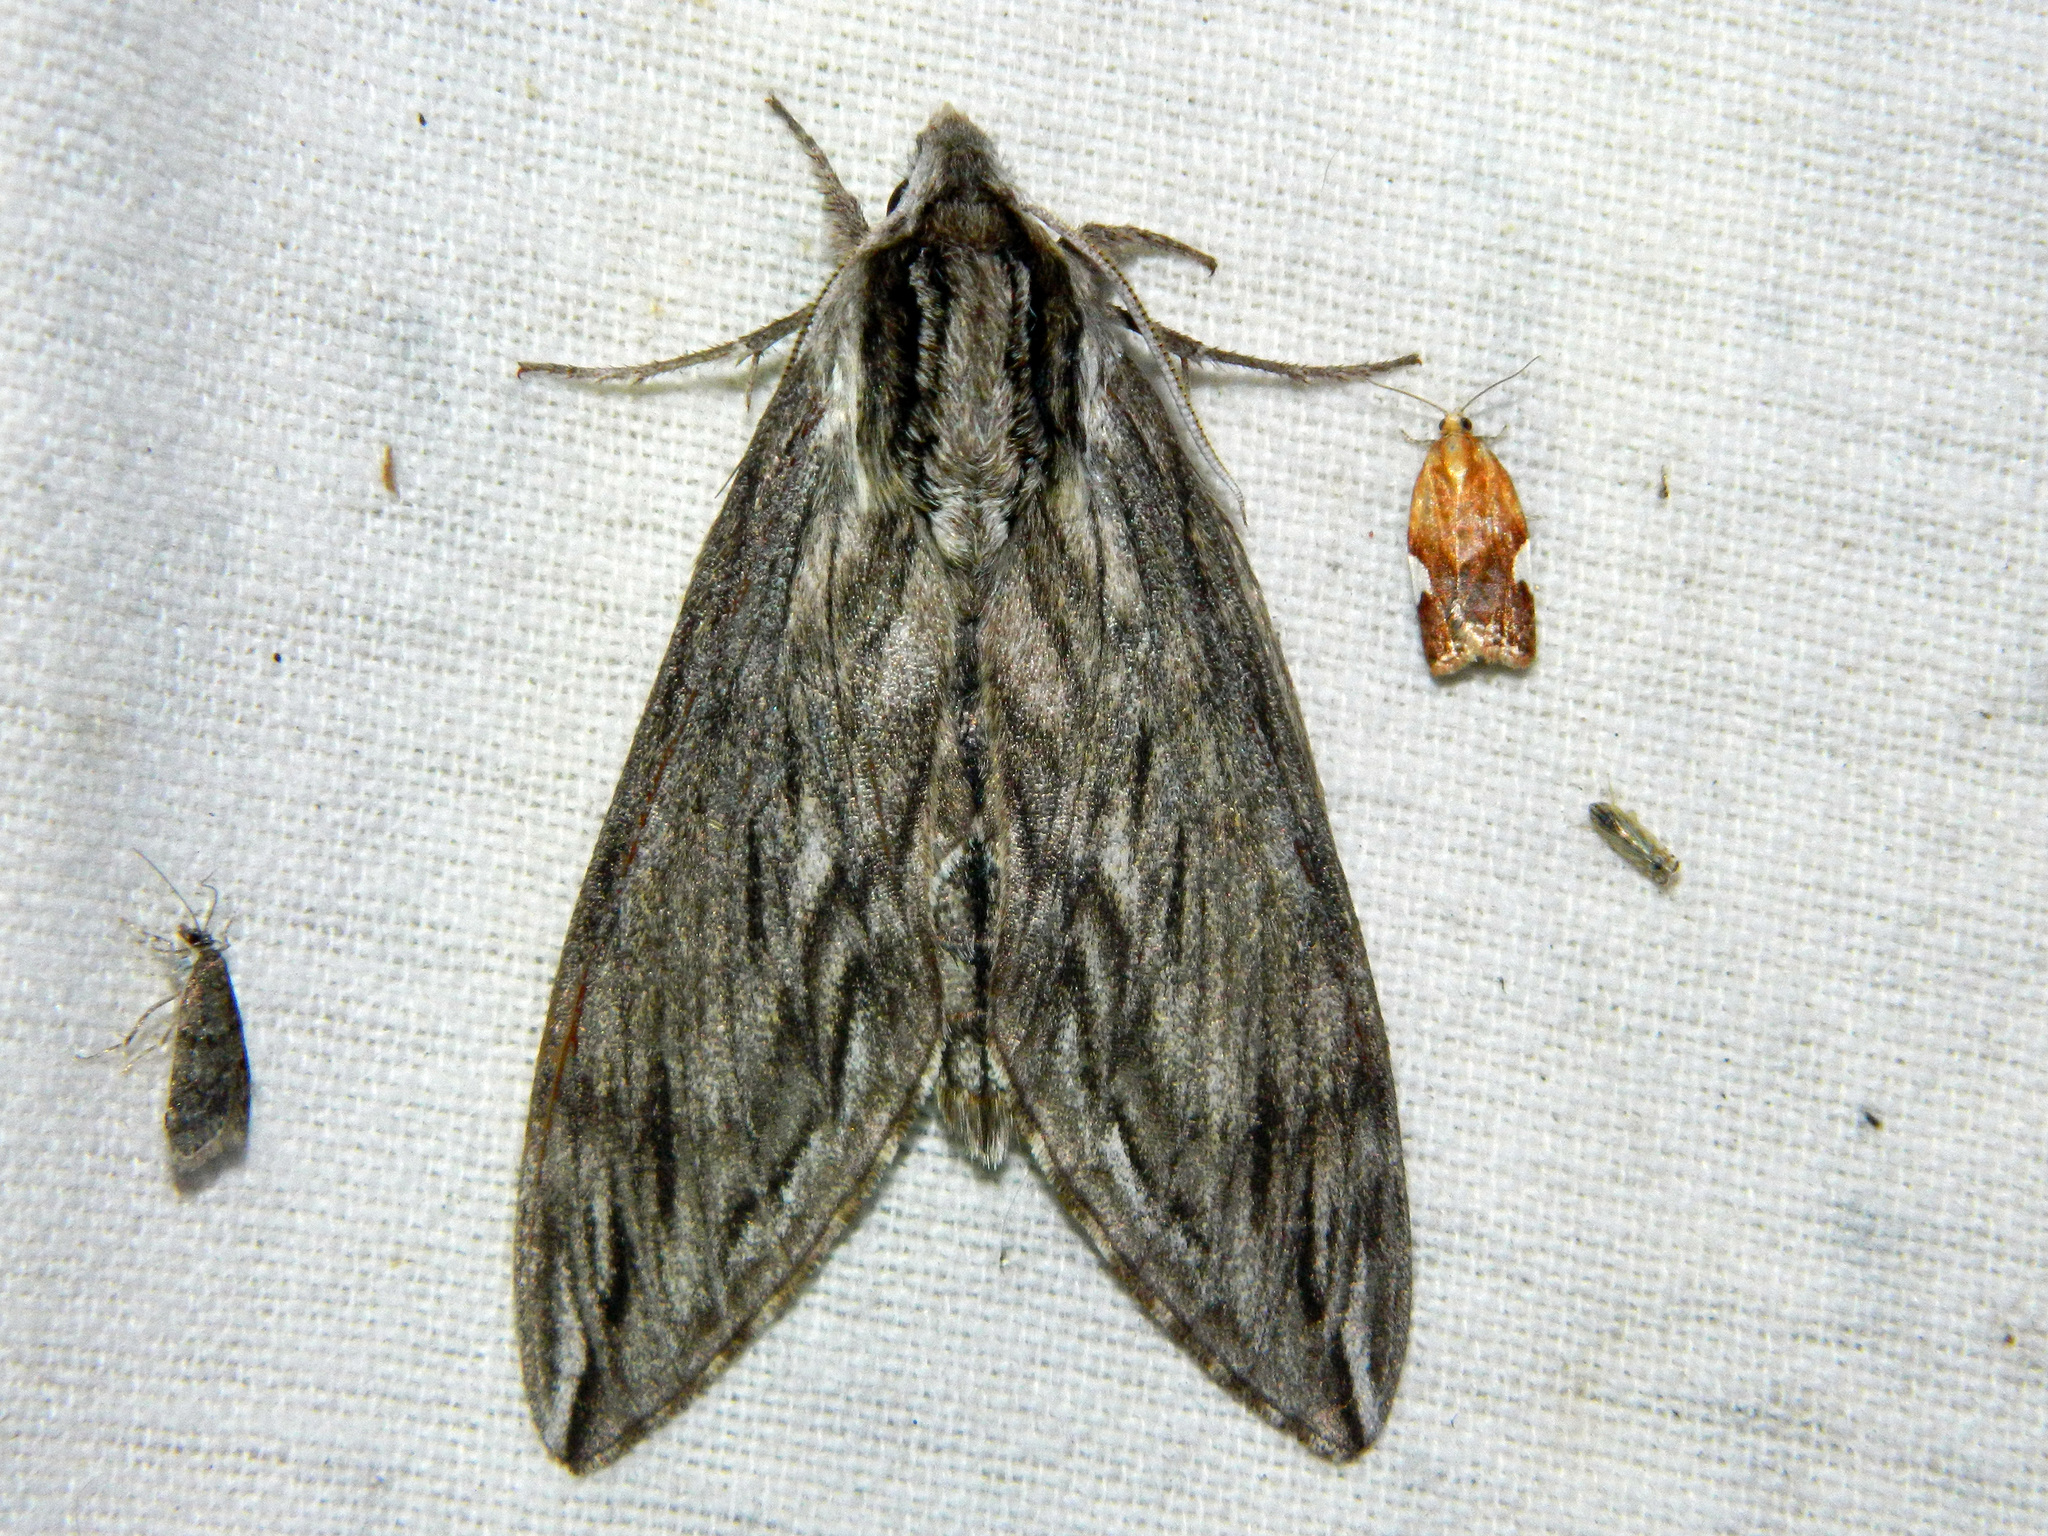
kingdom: Animalia
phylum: Arthropoda
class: Insecta
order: Lepidoptera
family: Sphingidae
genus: Sphinx
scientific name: Sphinx canadensis
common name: Canadian sphinx
